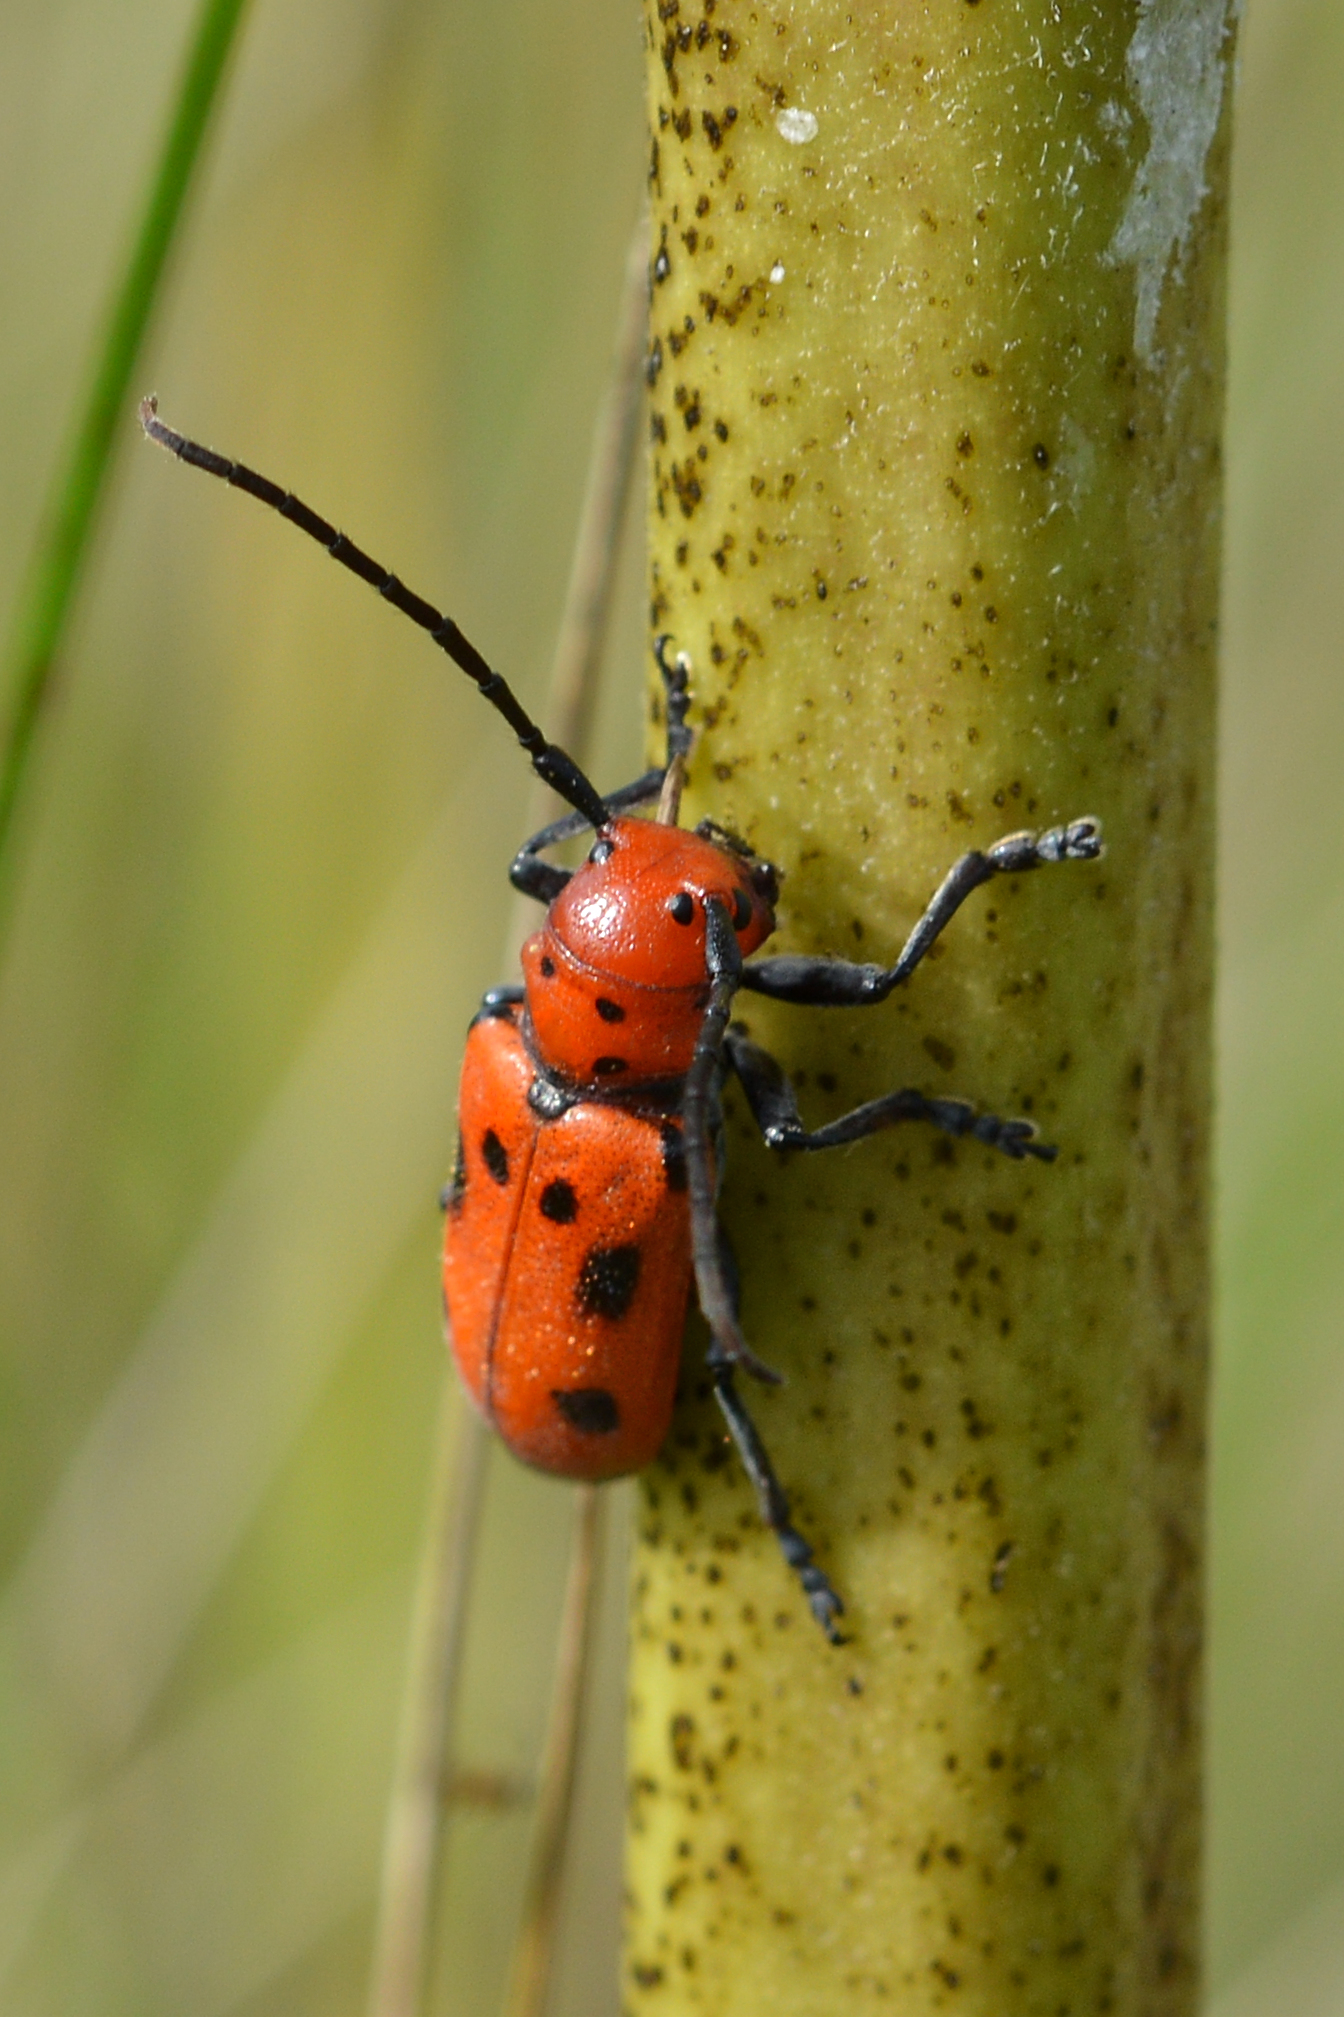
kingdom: Animalia
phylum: Arthropoda
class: Insecta
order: Coleoptera
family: Cerambycidae
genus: Tetraopes
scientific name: Tetraopes tetrophthalmus
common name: Red milkweed beetle
